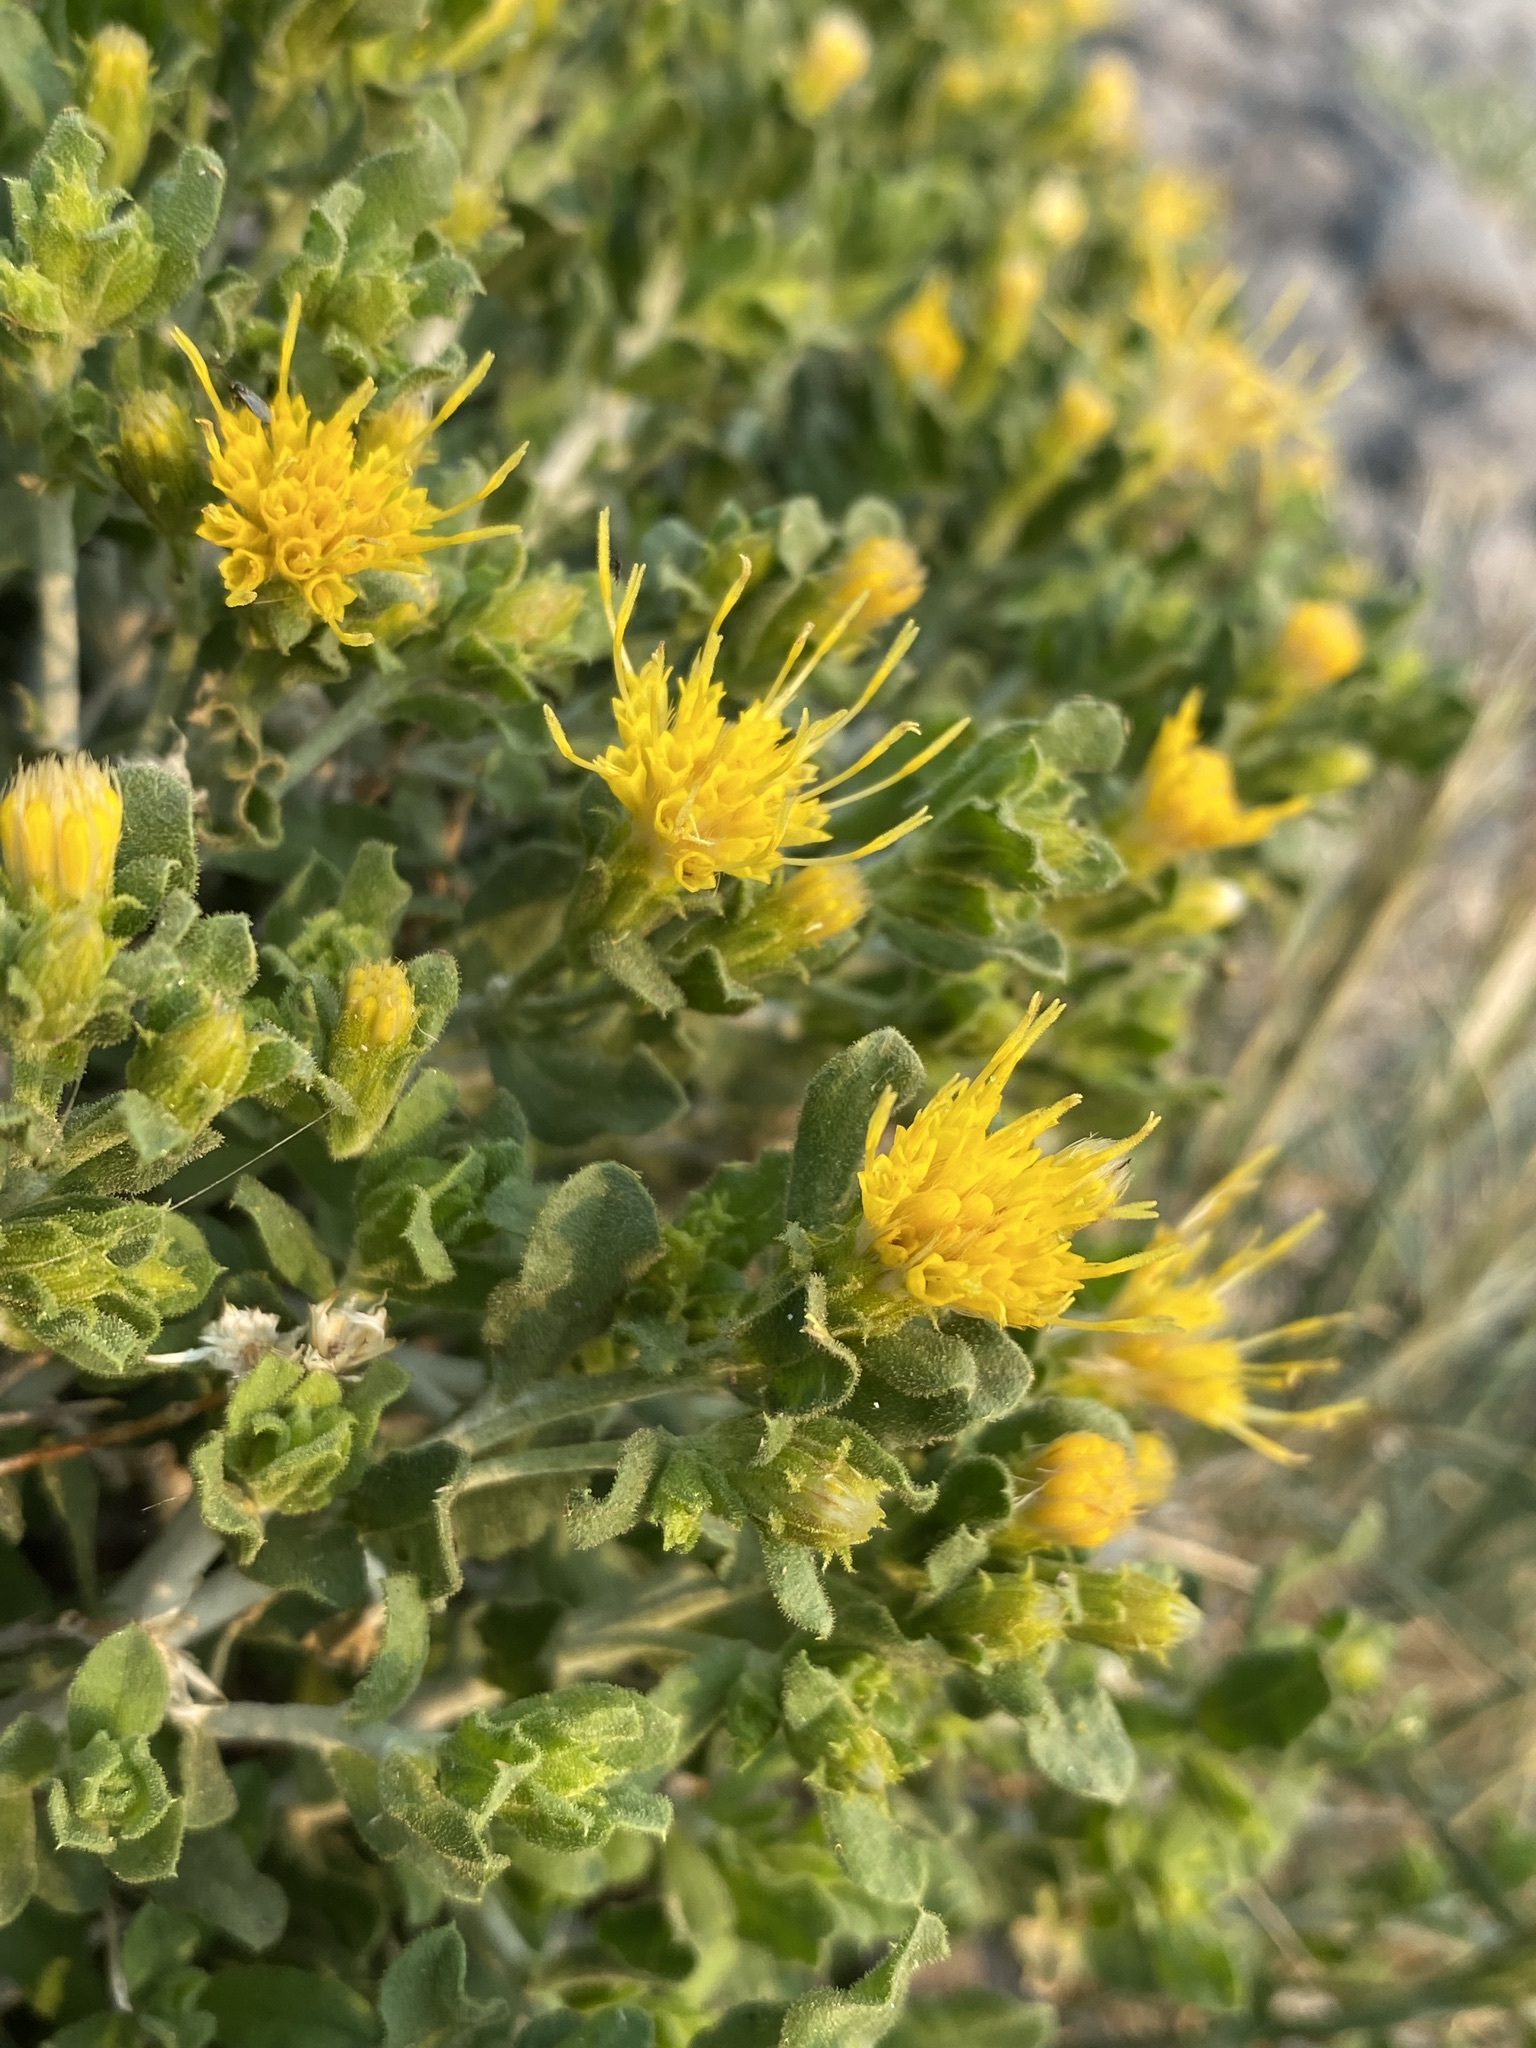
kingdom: Plantae
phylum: Tracheophyta
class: Magnoliopsida
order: Asterales
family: Asteraceae
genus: Ericameria
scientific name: Ericameria discoidea
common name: Sharp-scale goldenweed
